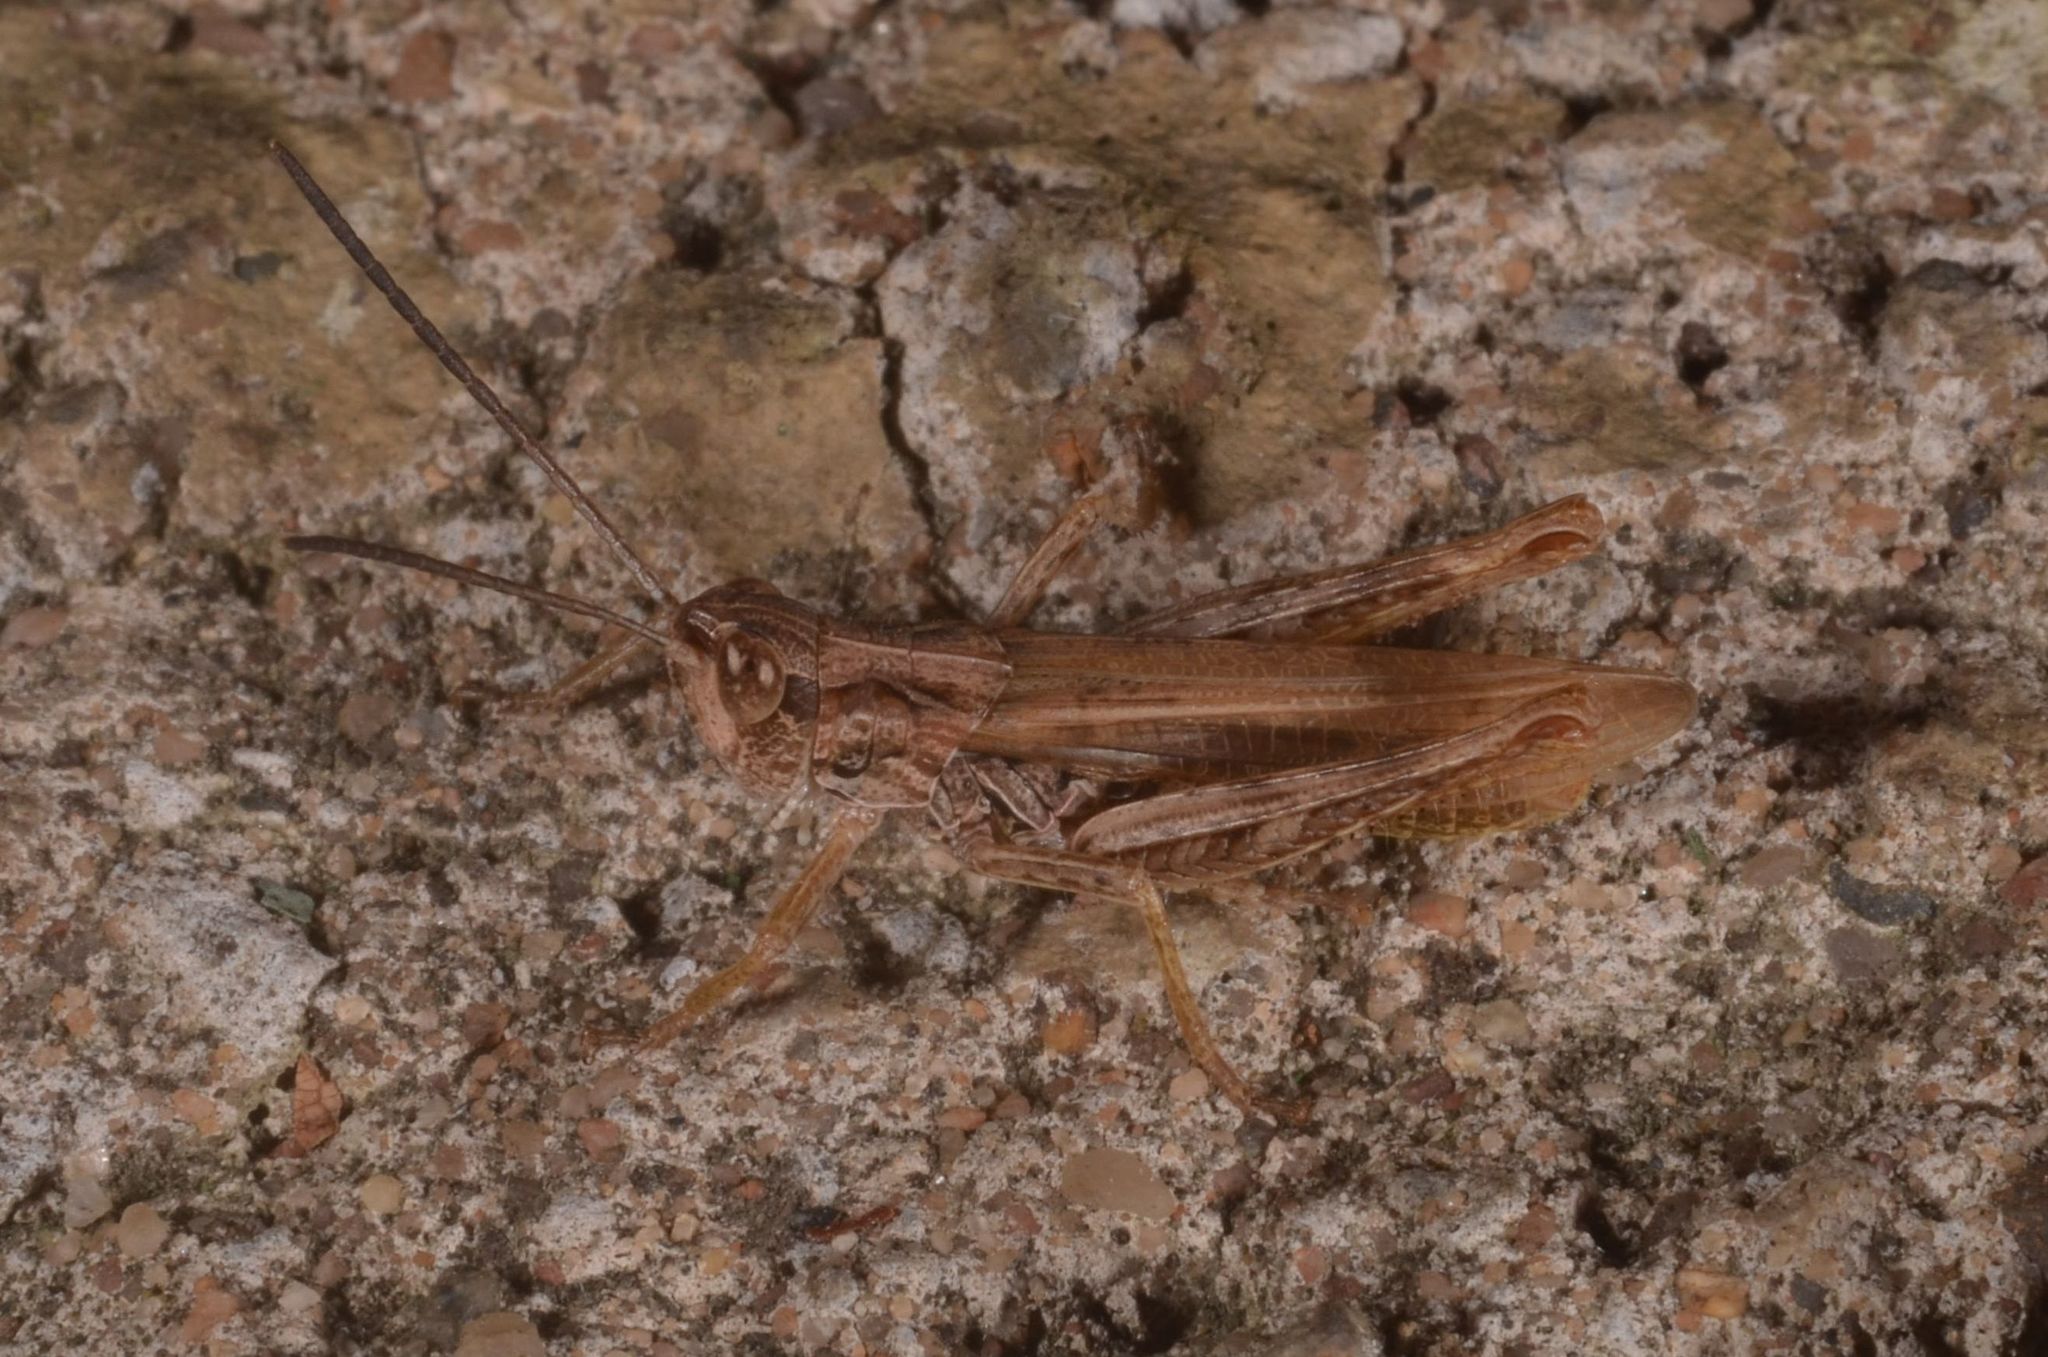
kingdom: Animalia
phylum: Arthropoda
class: Insecta
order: Orthoptera
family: Acrididae
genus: Chorthippus
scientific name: Chorthippus apricarius
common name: Upland field grasshopper
